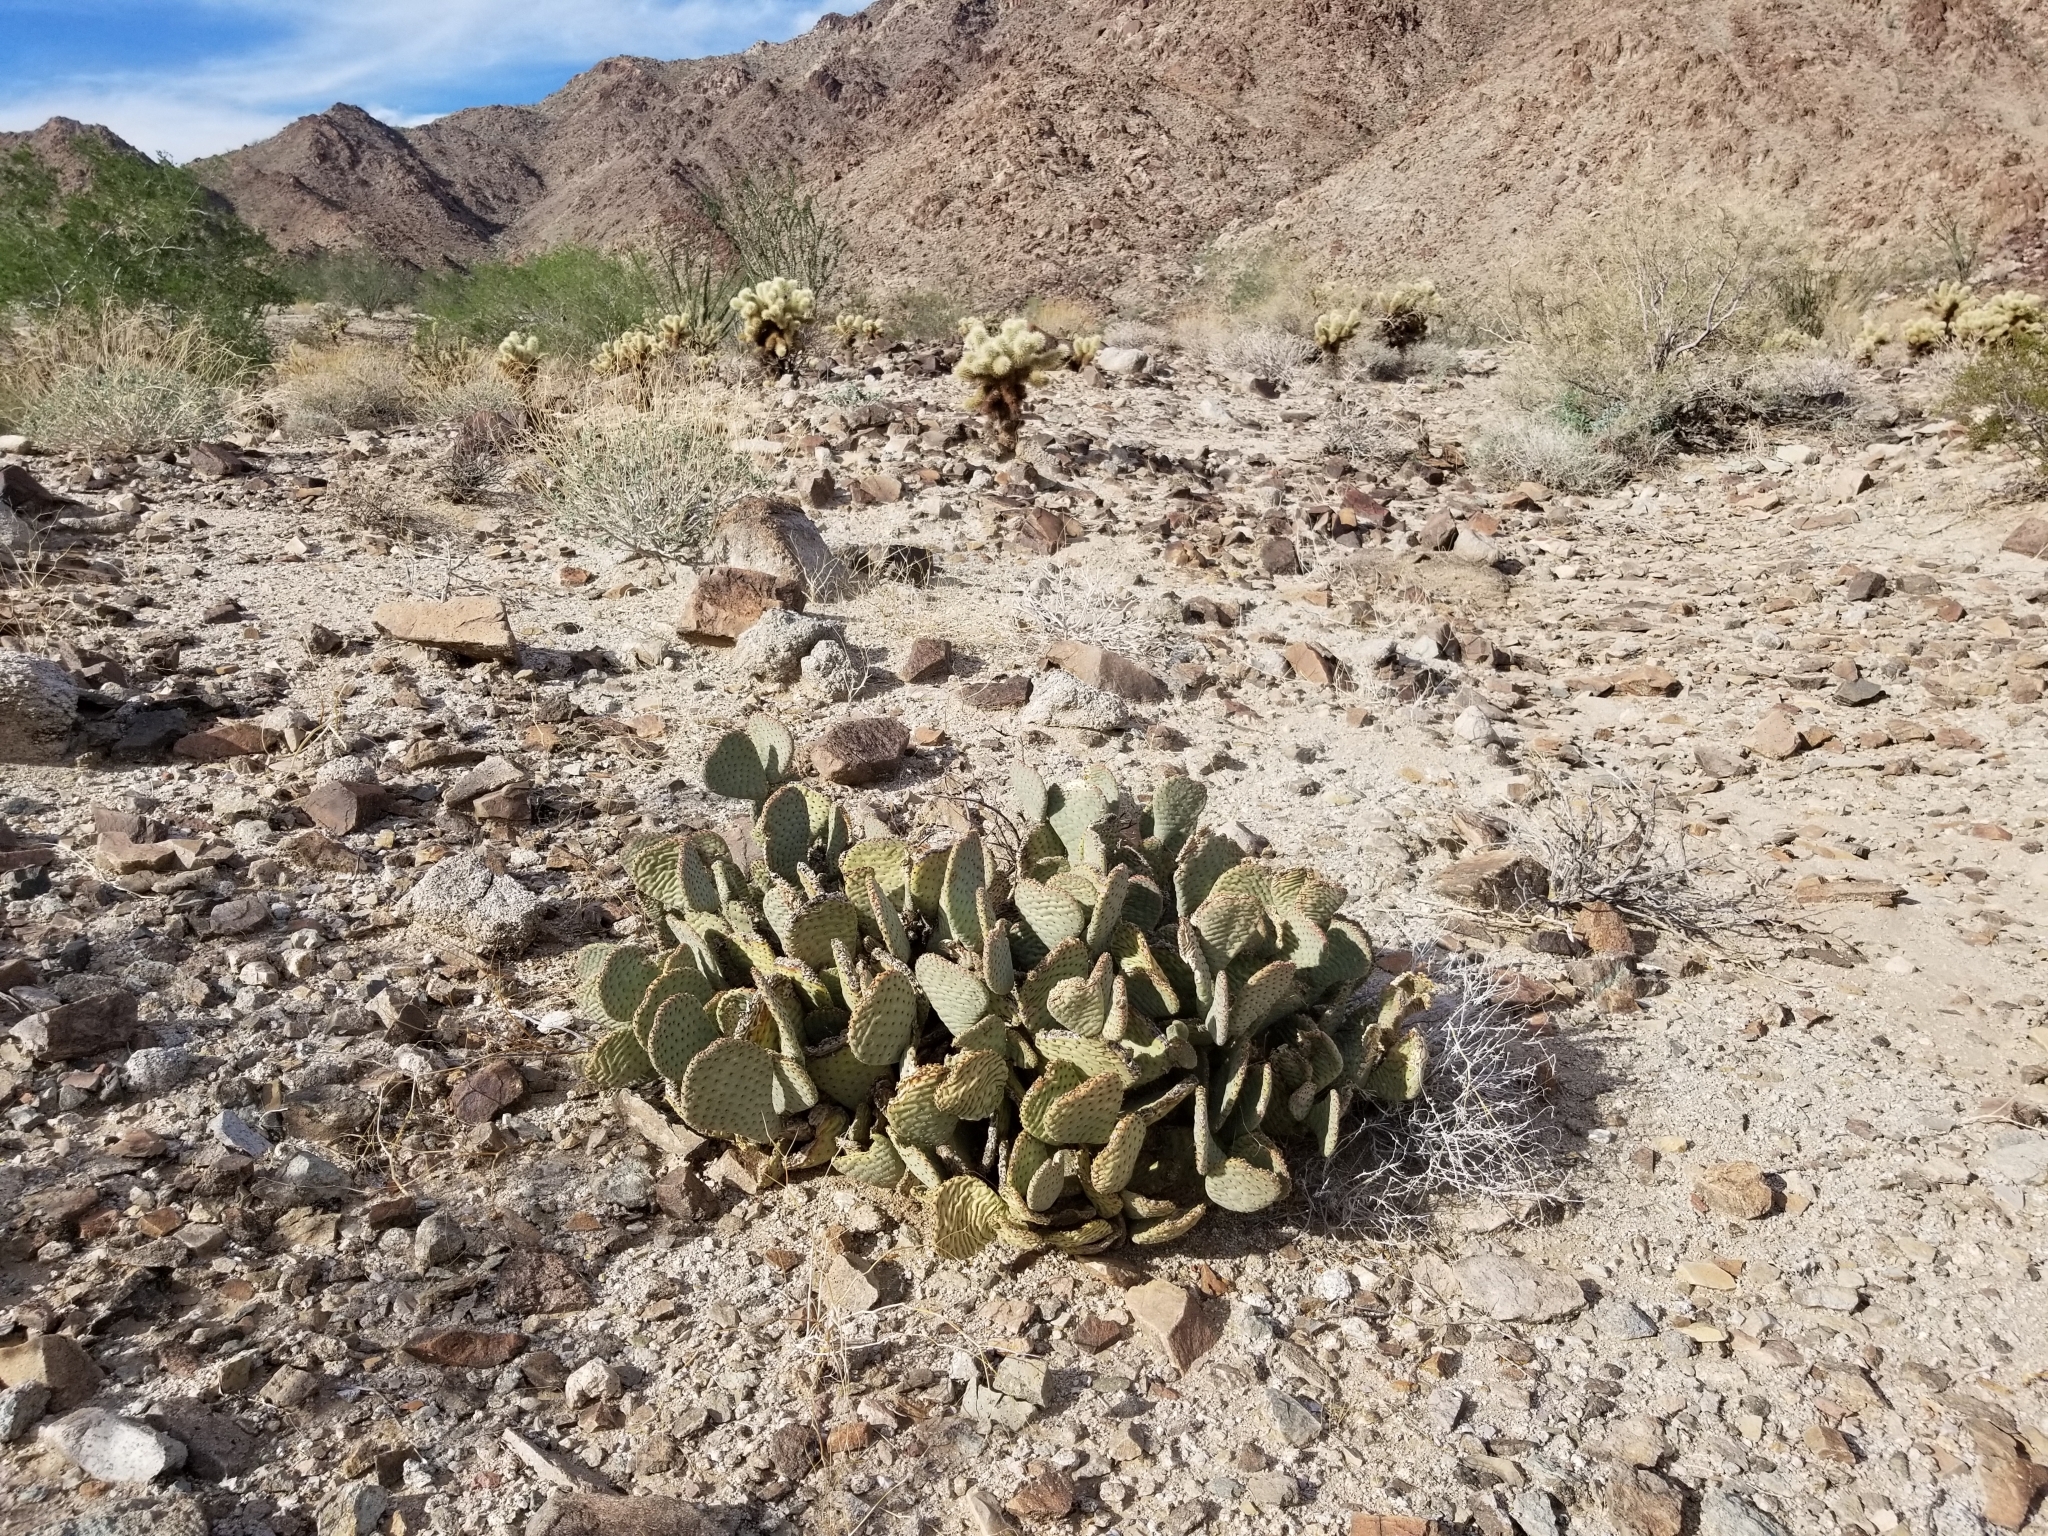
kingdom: Plantae
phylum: Tracheophyta
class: Magnoliopsida
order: Caryophyllales
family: Cactaceae
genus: Opuntia
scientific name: Opuntia basilaris
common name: Beavertail prickly-pear
